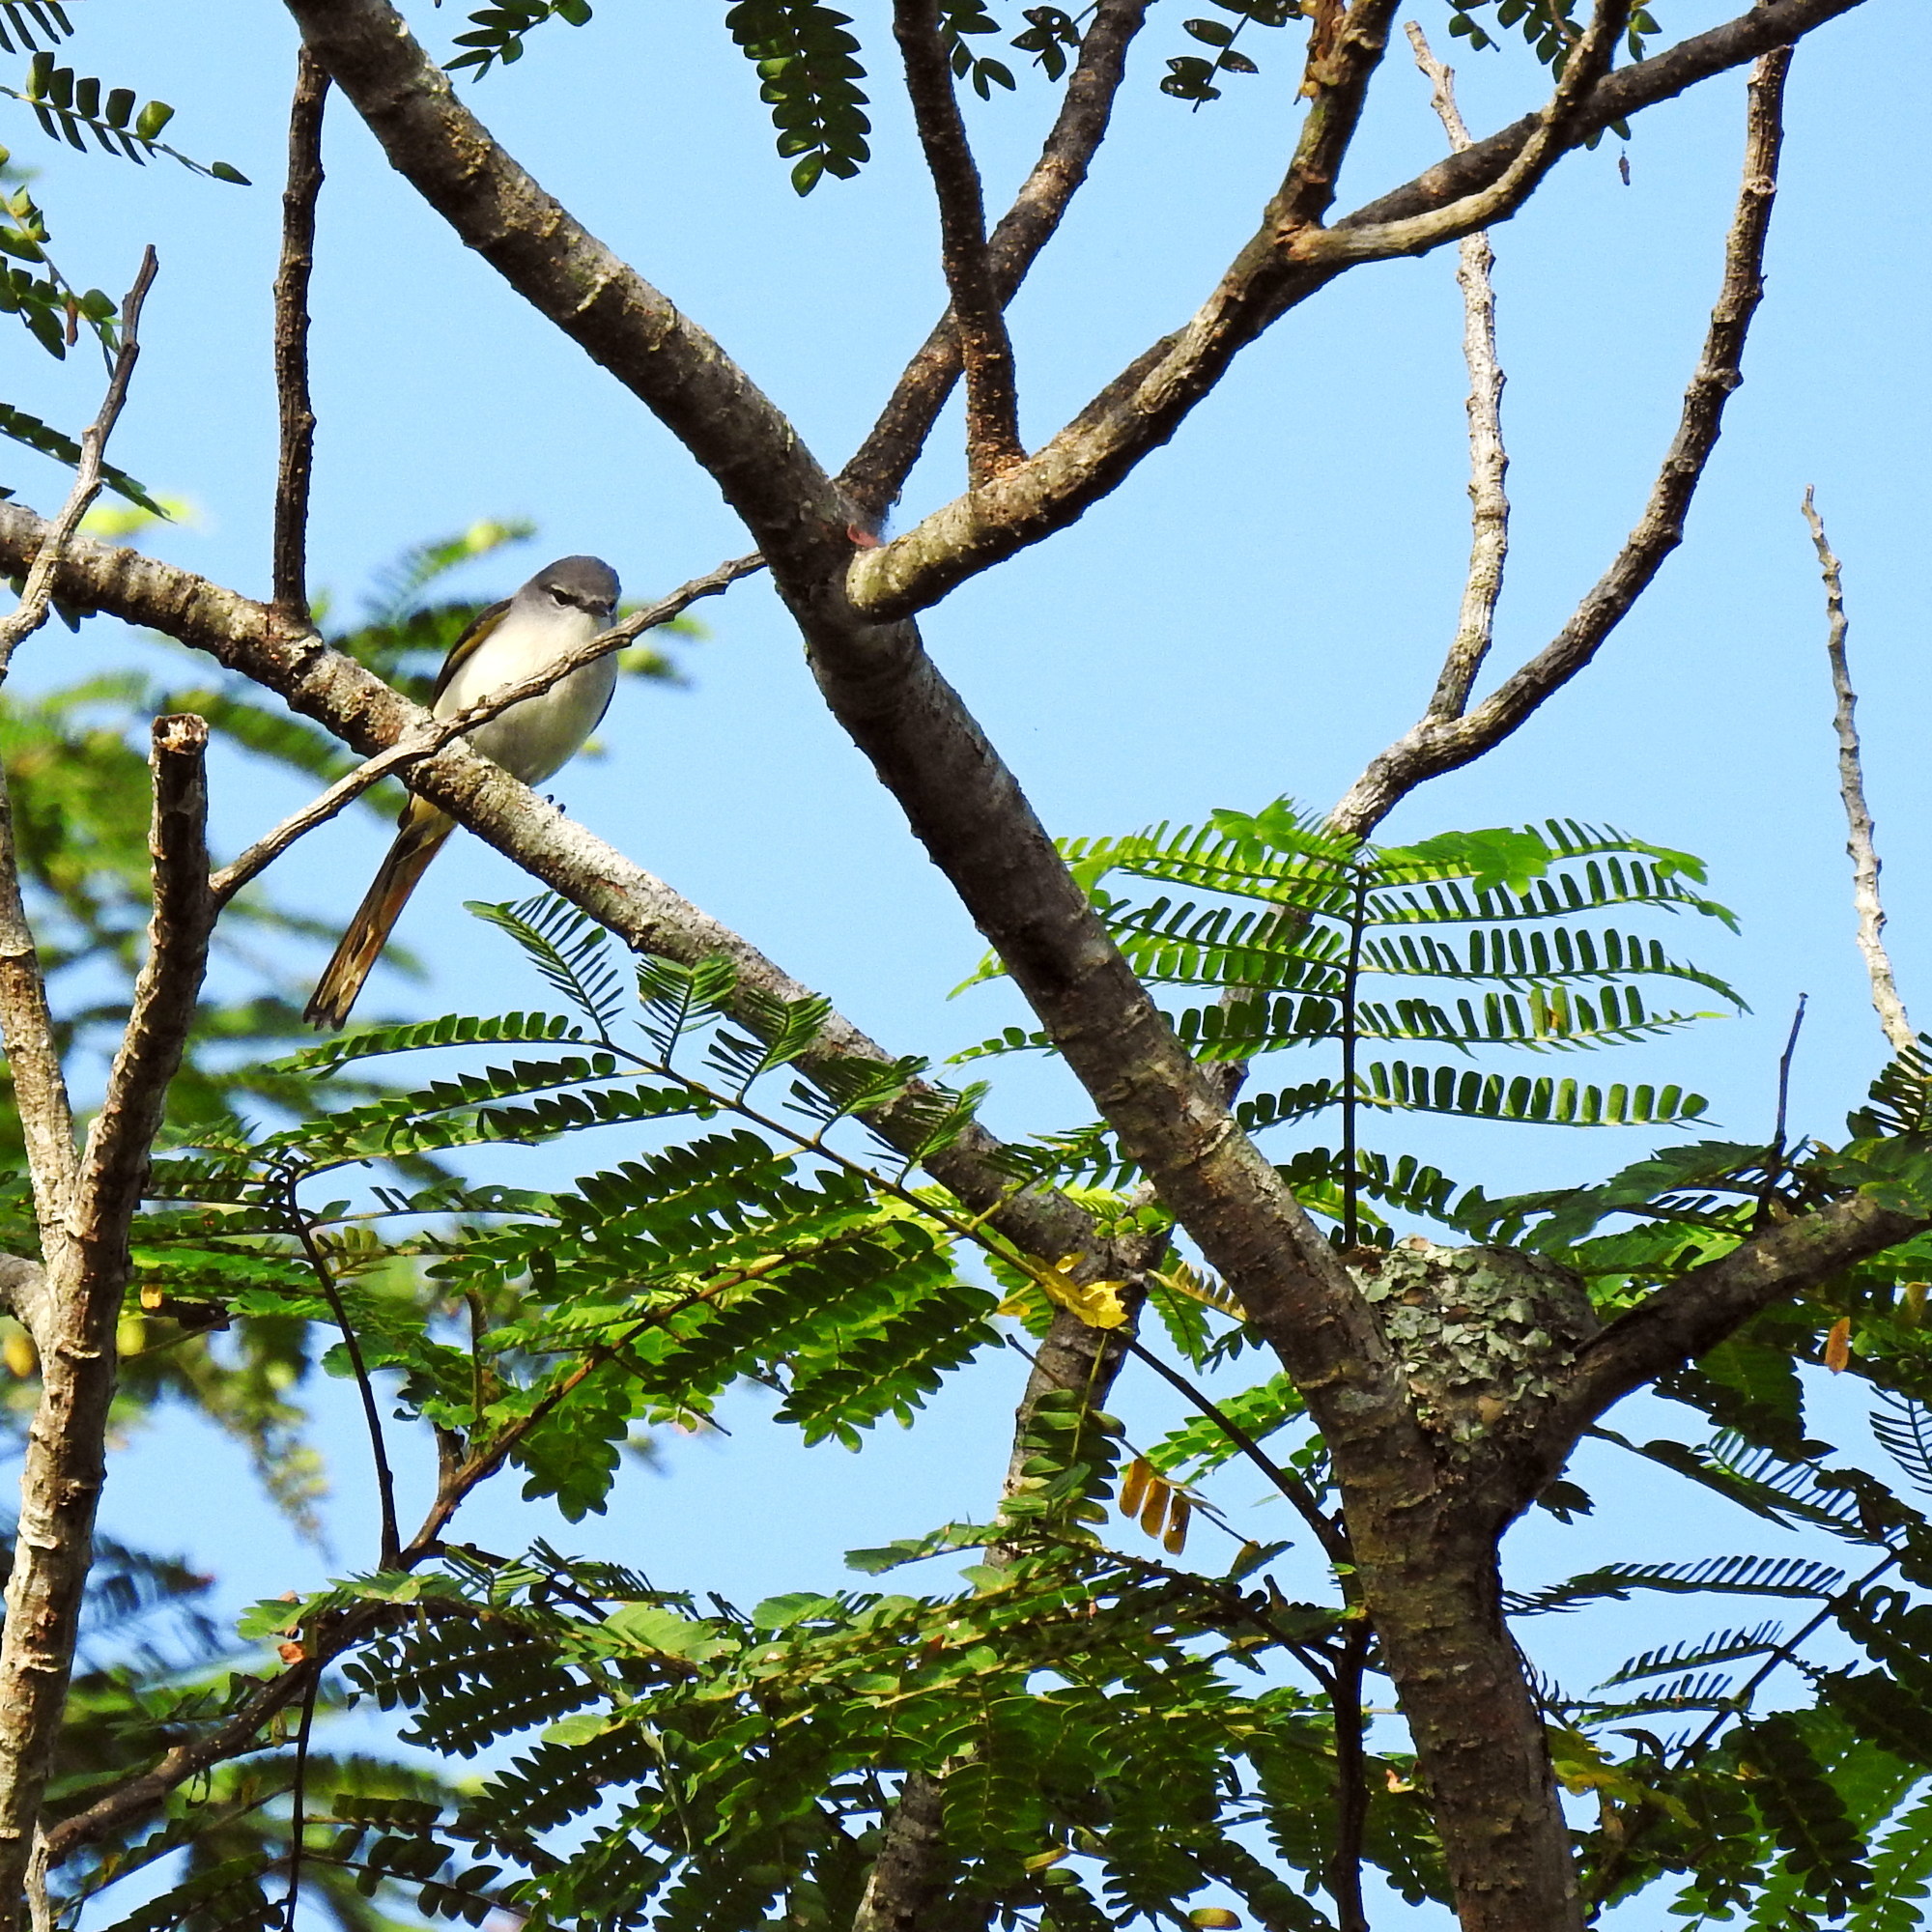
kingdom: Animalia
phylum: Chordata
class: Aves
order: Passeriformes
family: Campephagidae
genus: Pericrocotus
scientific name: Pericrocotus cinnamomeus
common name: Small minivet
